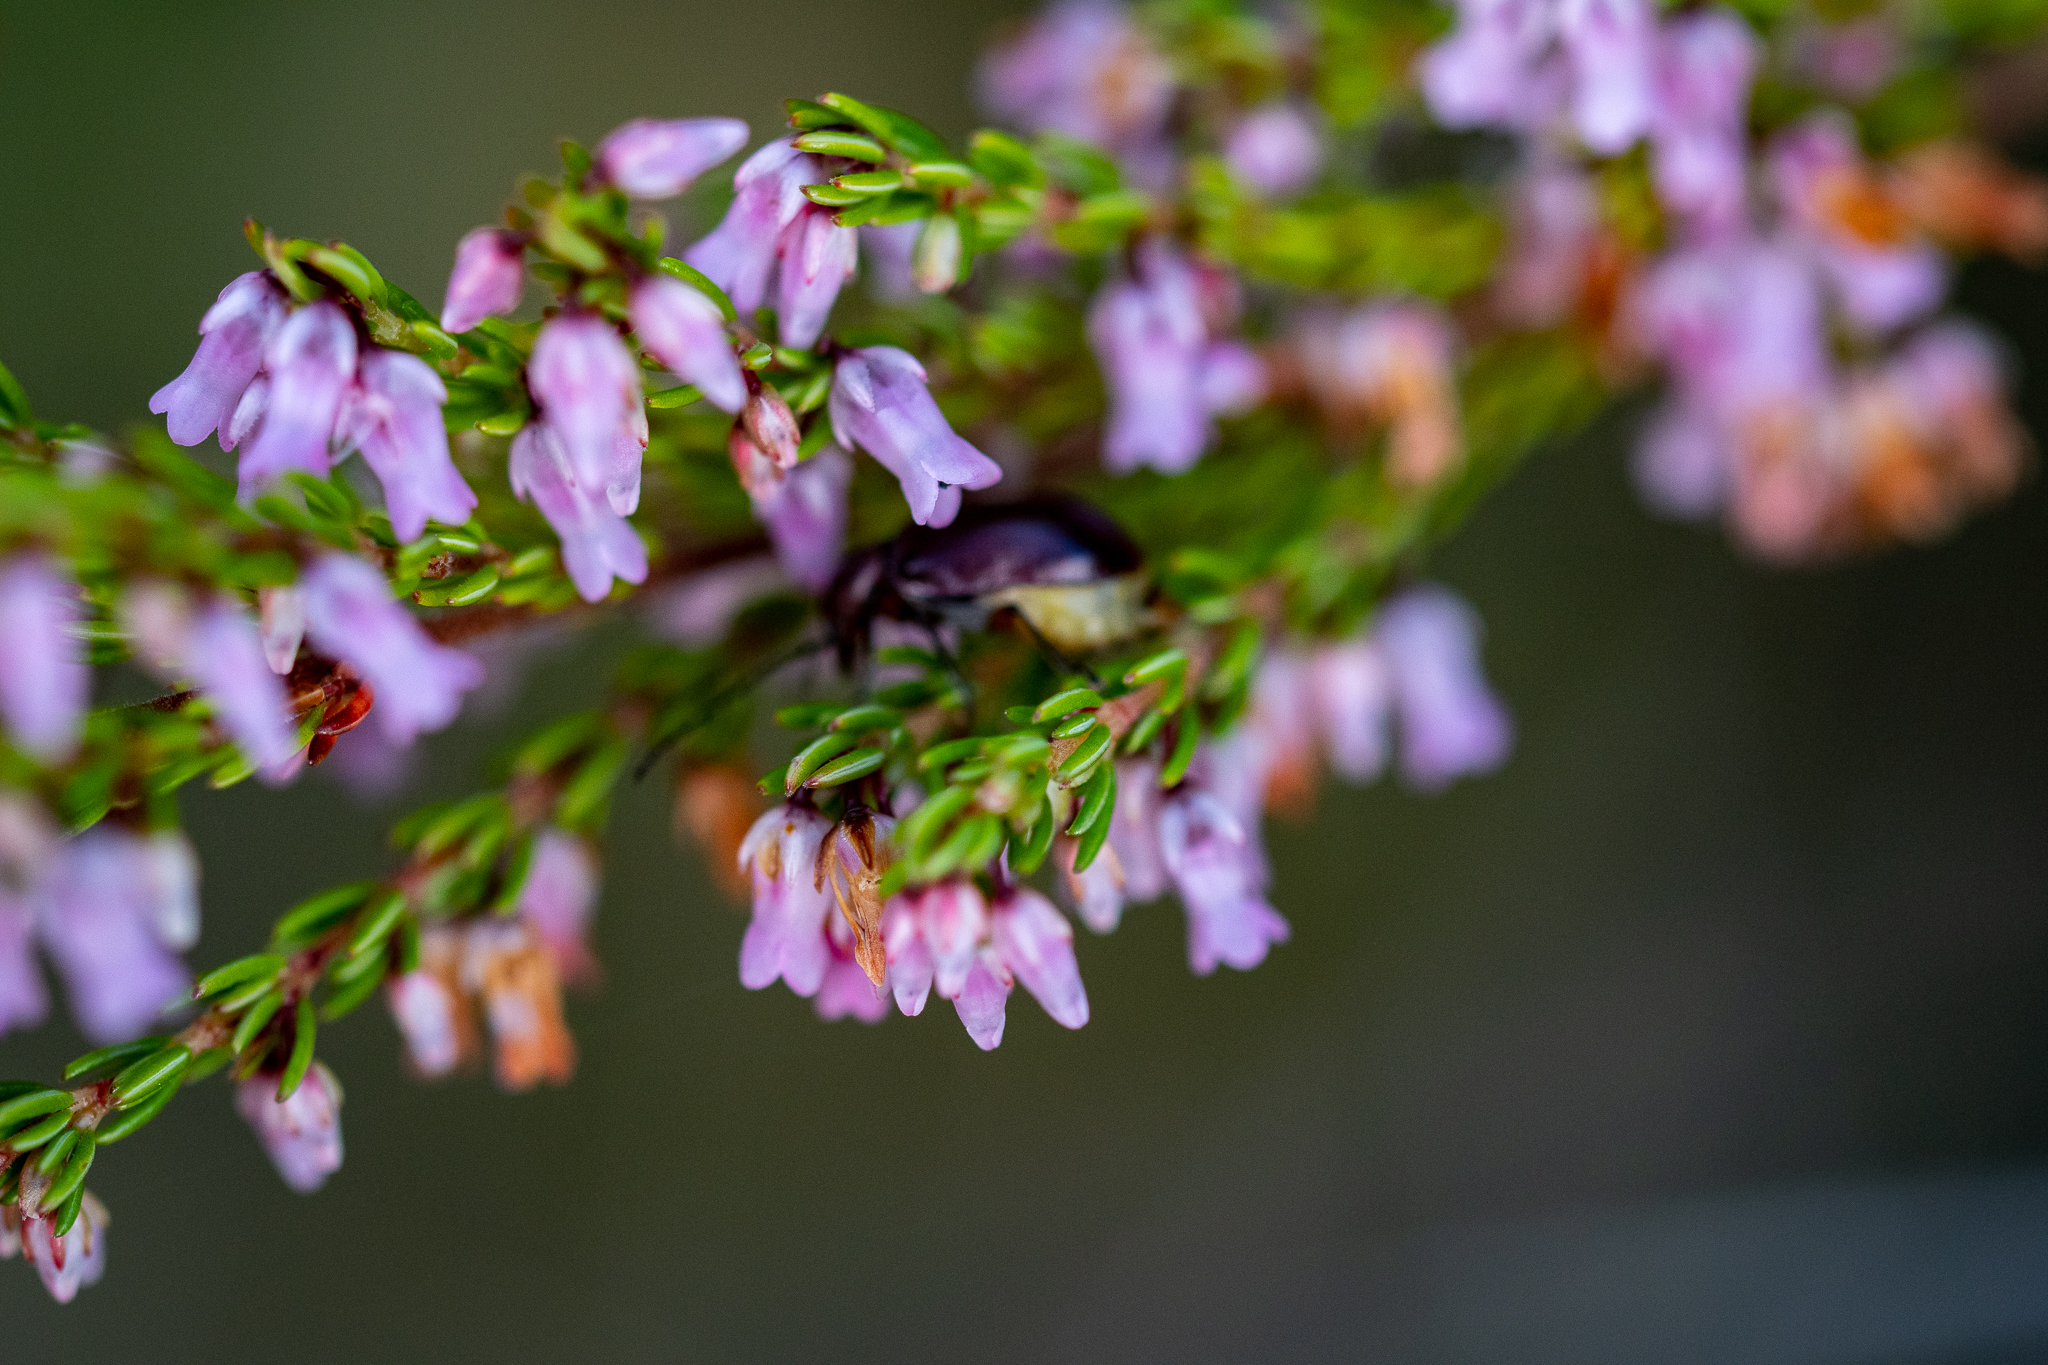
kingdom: Plantae
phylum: Tracheophyta
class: Magnoliopsida
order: Ericales
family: Ericaceae
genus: Erica
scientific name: Erica intervallaris
